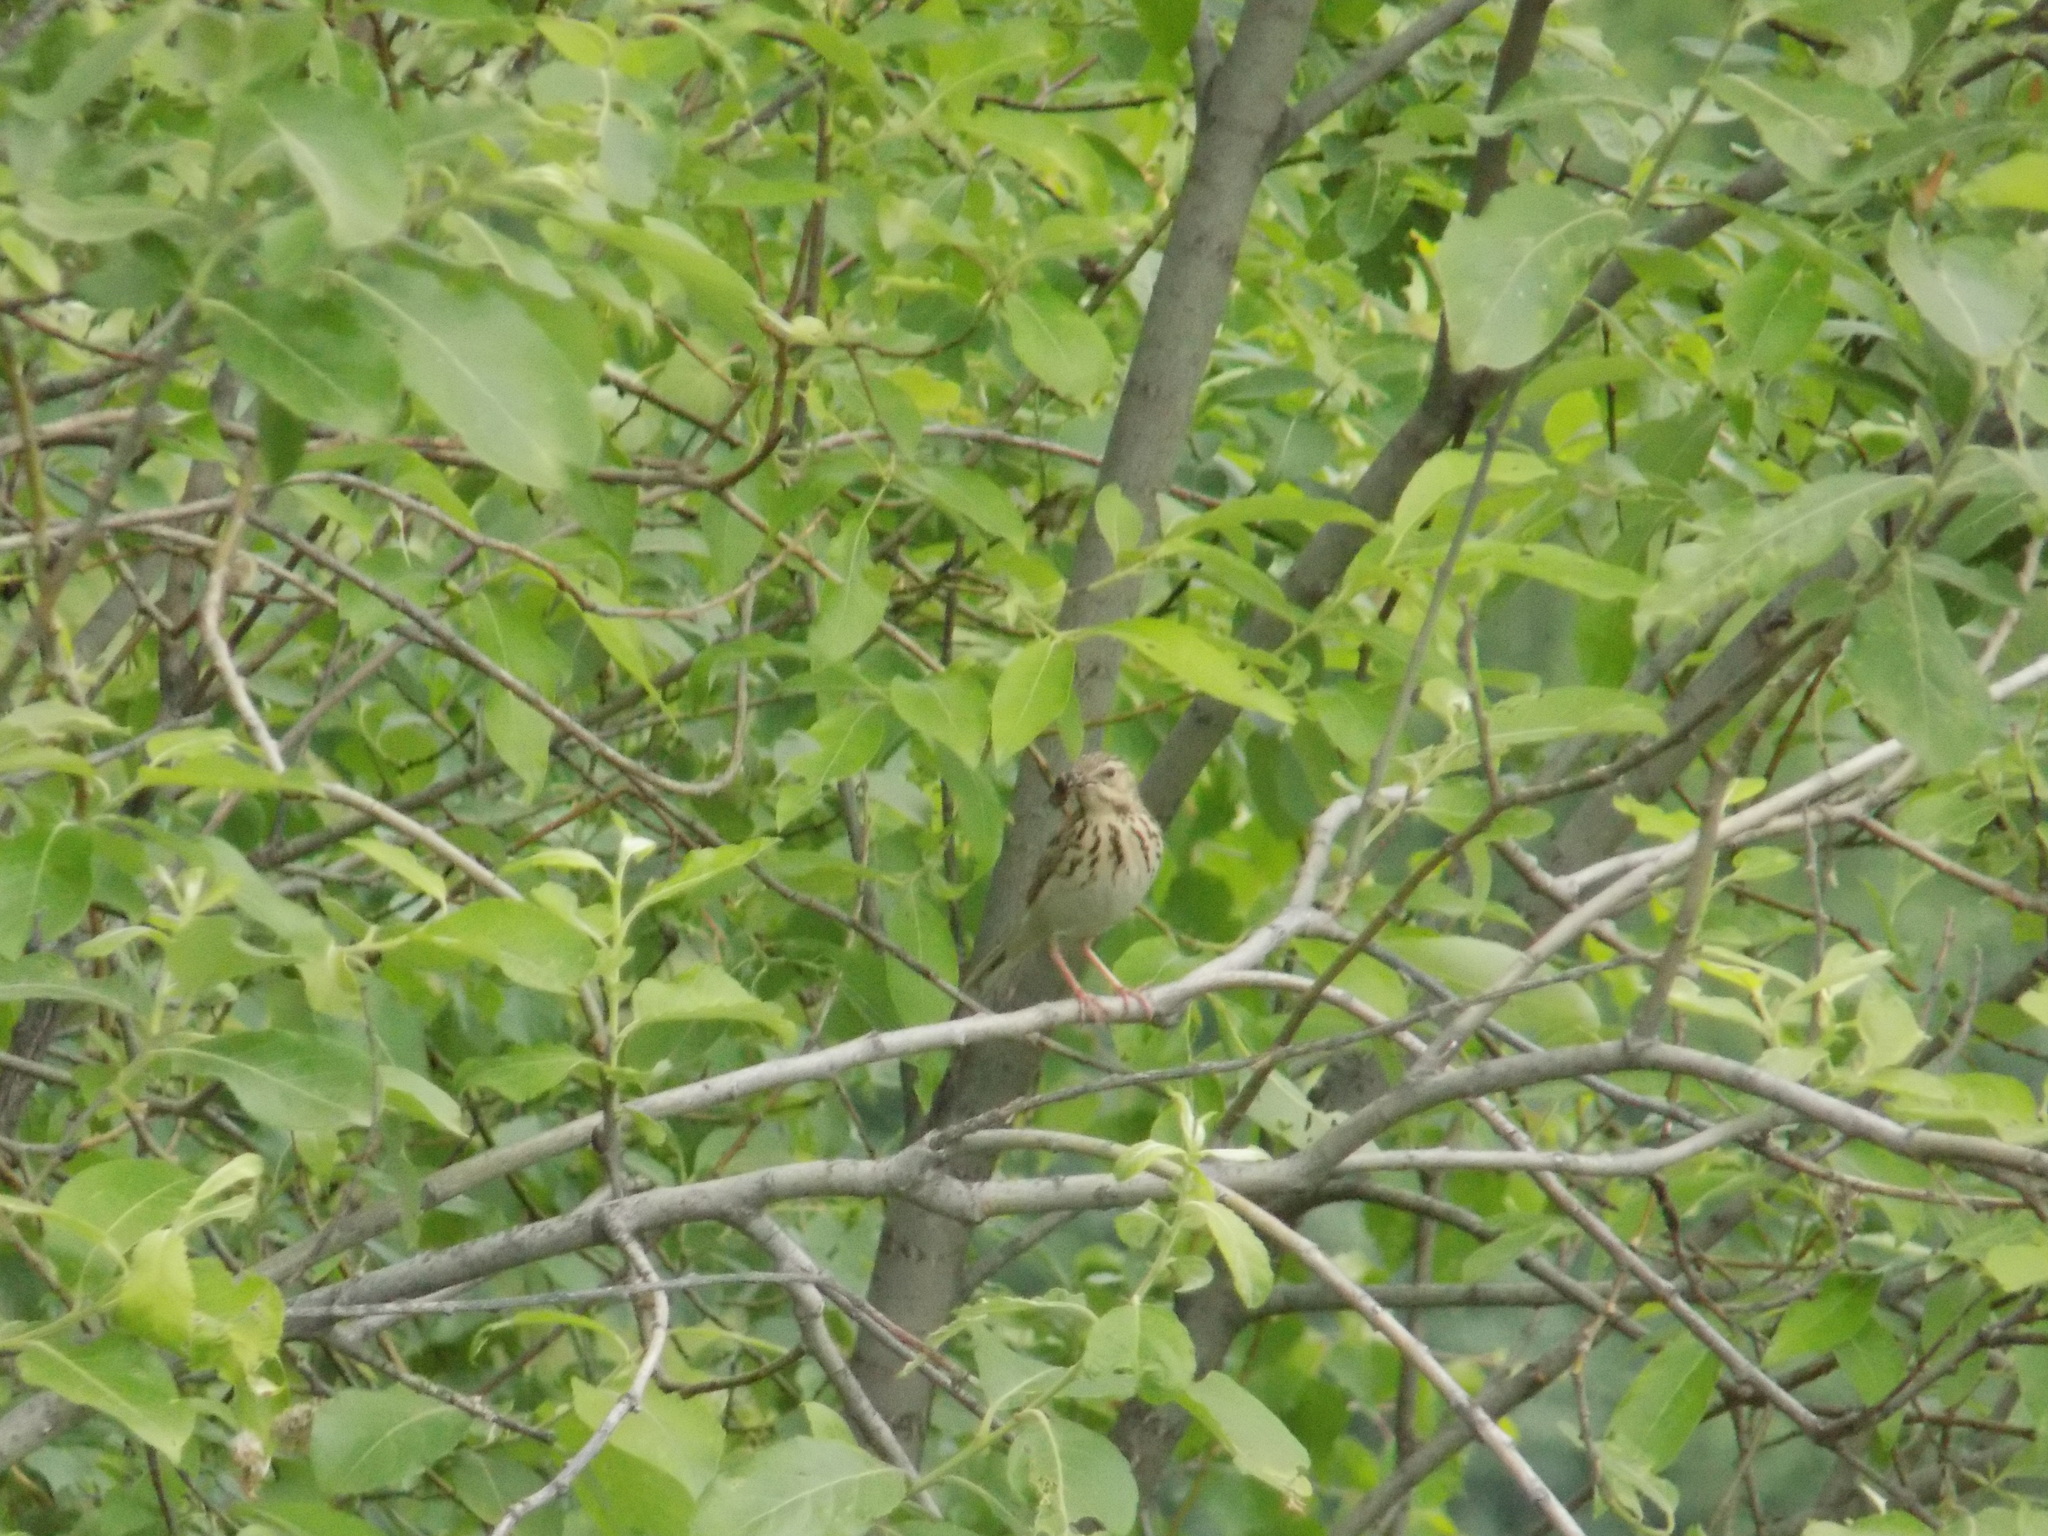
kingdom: Animalia
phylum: Chordata
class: Aves
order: Passeriformes
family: Motacillidae
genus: Anthus
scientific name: Anthus trivialis
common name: Tree pipit
